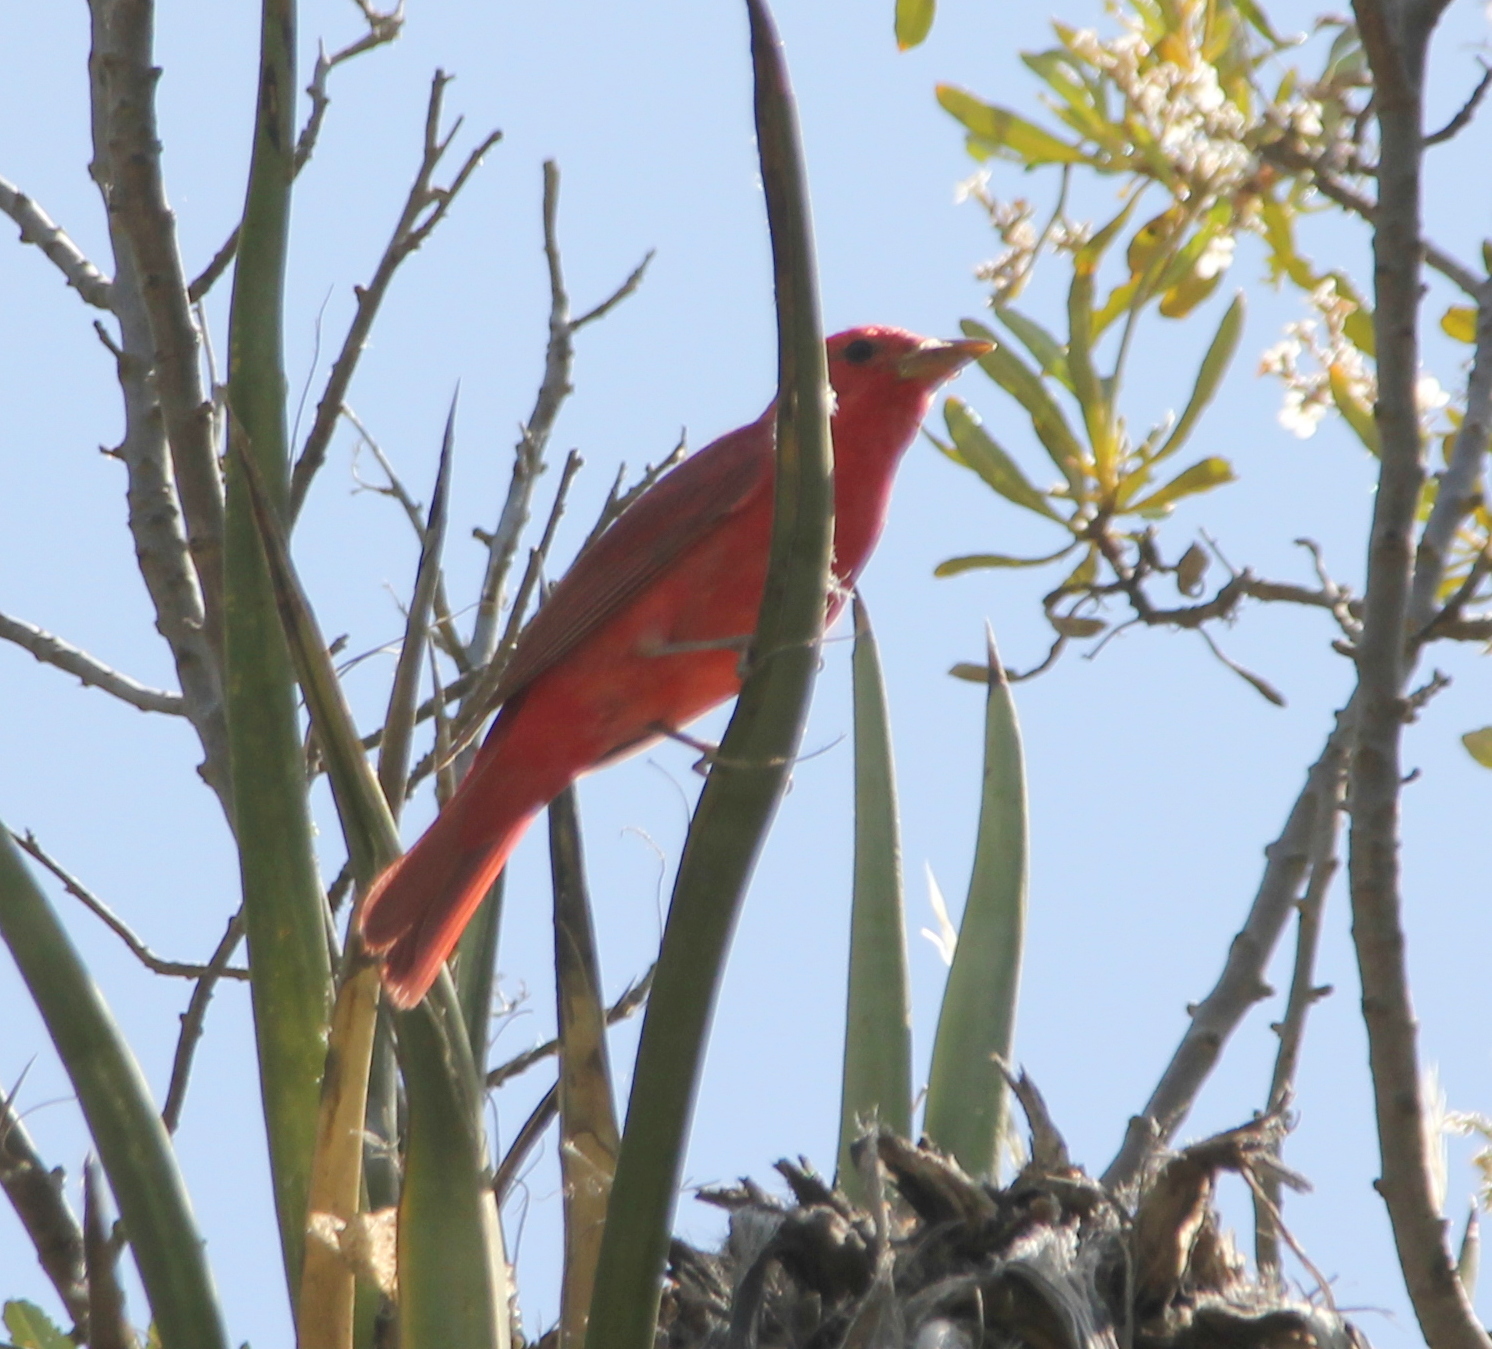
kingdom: Animalia
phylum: Chordata
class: Aves
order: Passeriformes
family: Cardinalidae
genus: Piranga
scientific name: Piranga rubra
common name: Summer tanager
